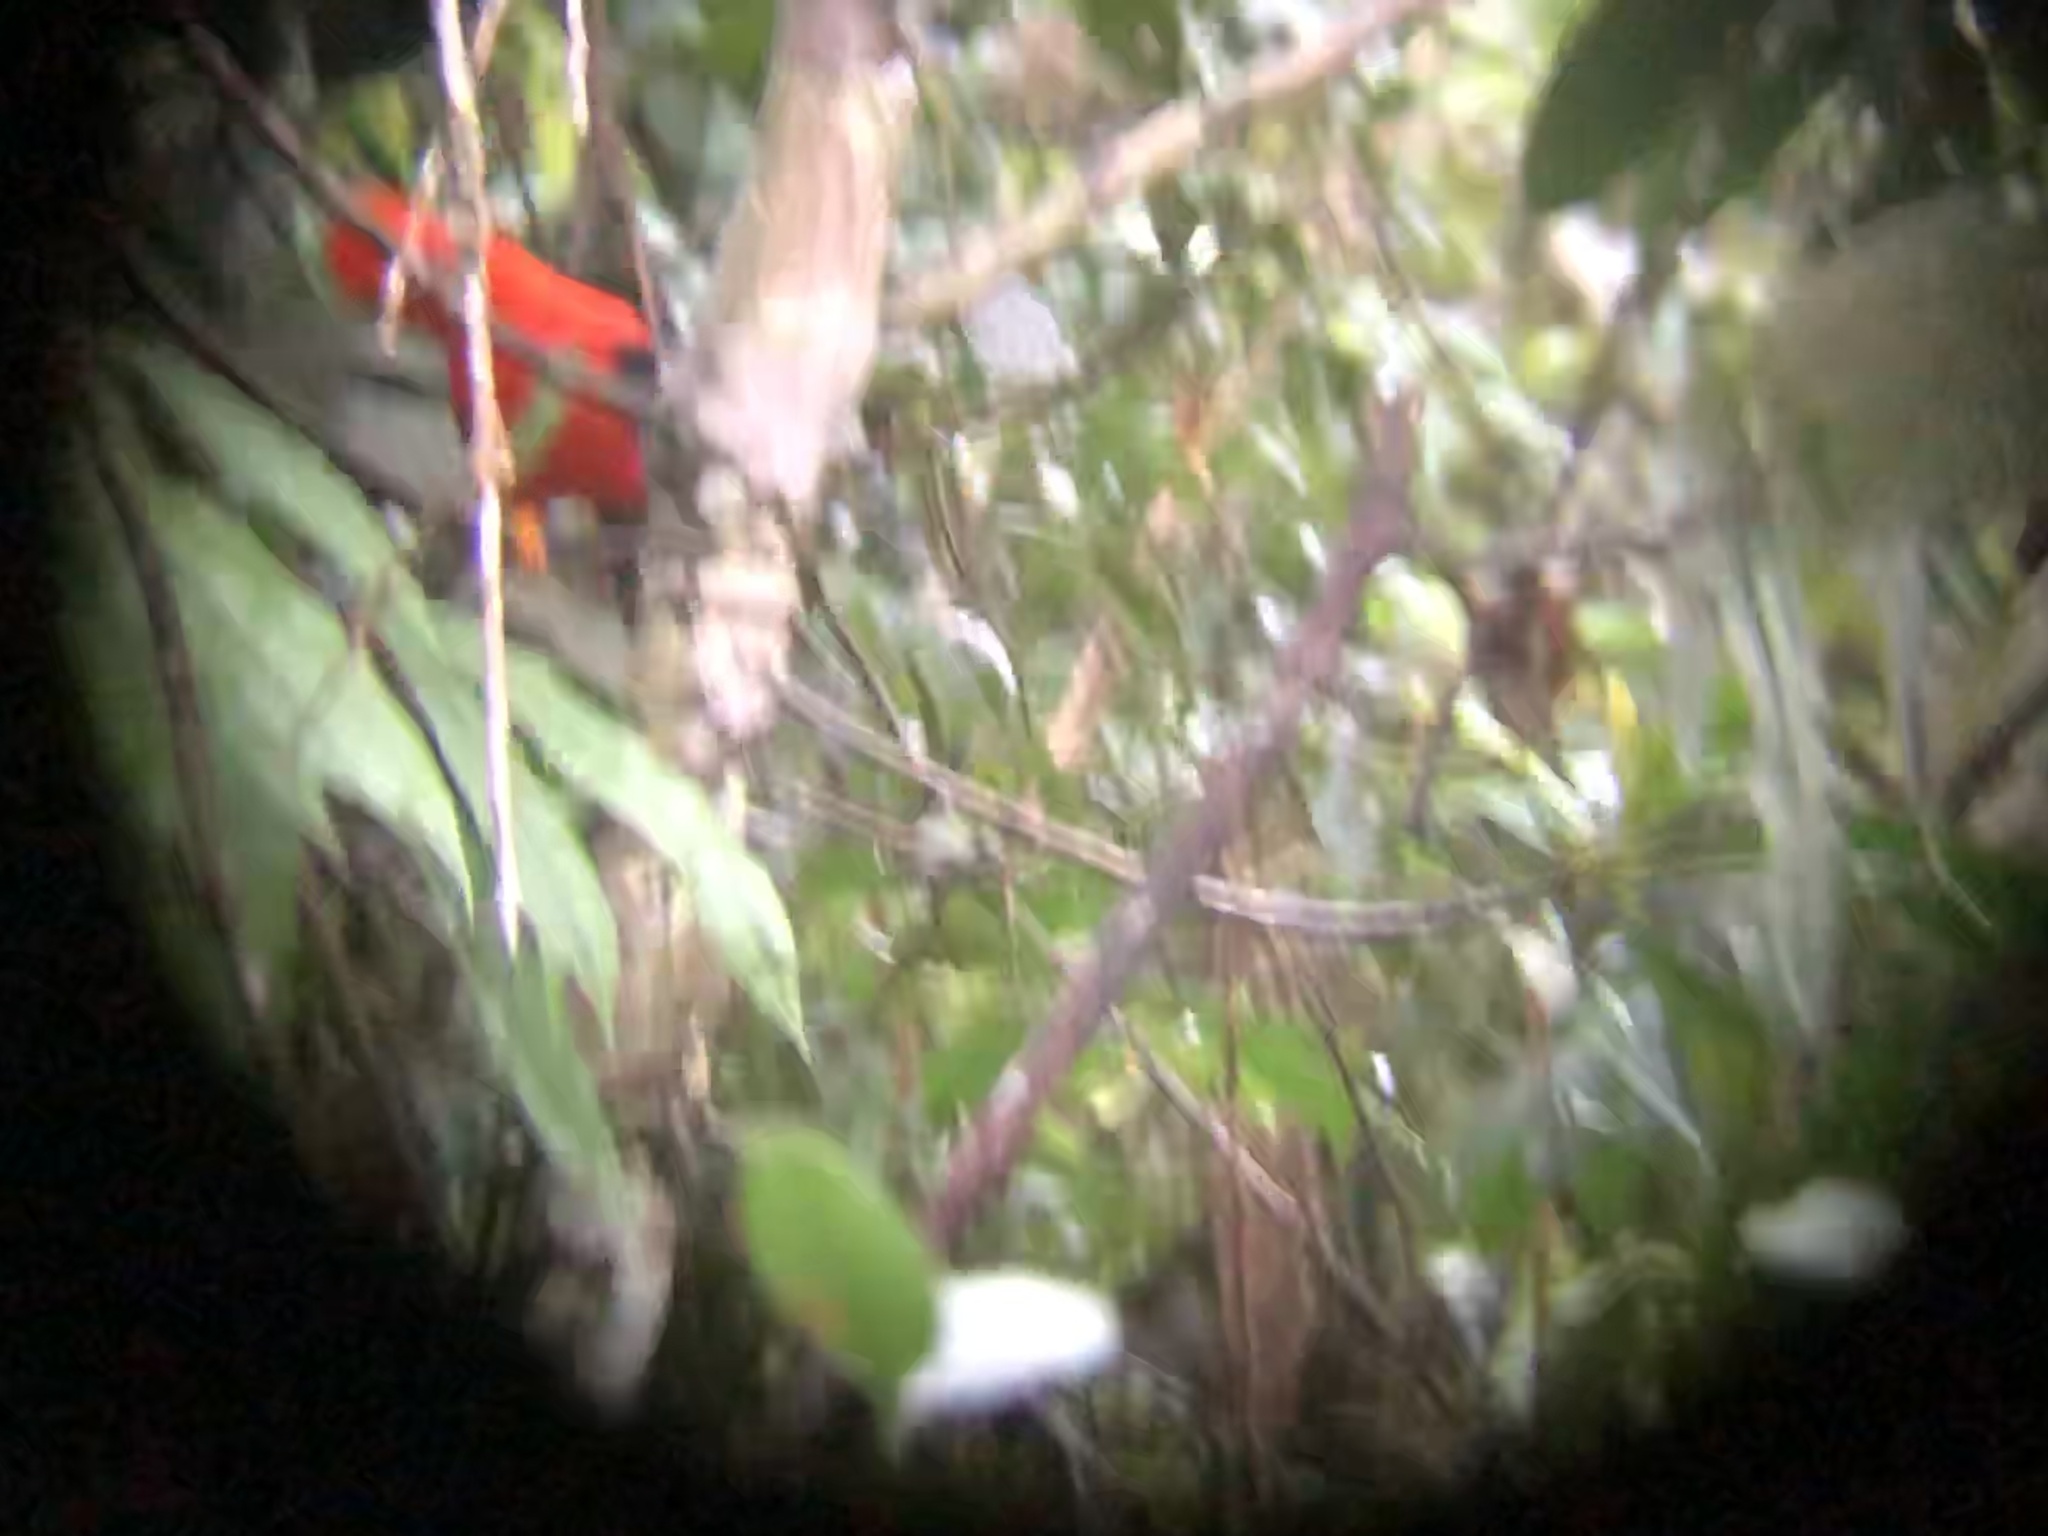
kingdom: Animalia
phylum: Chordata
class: Aves
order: Passeriformes
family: Cotingidae
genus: Rupicola
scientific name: Rupicola peruvianus
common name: Andean cock-of-the-rock
